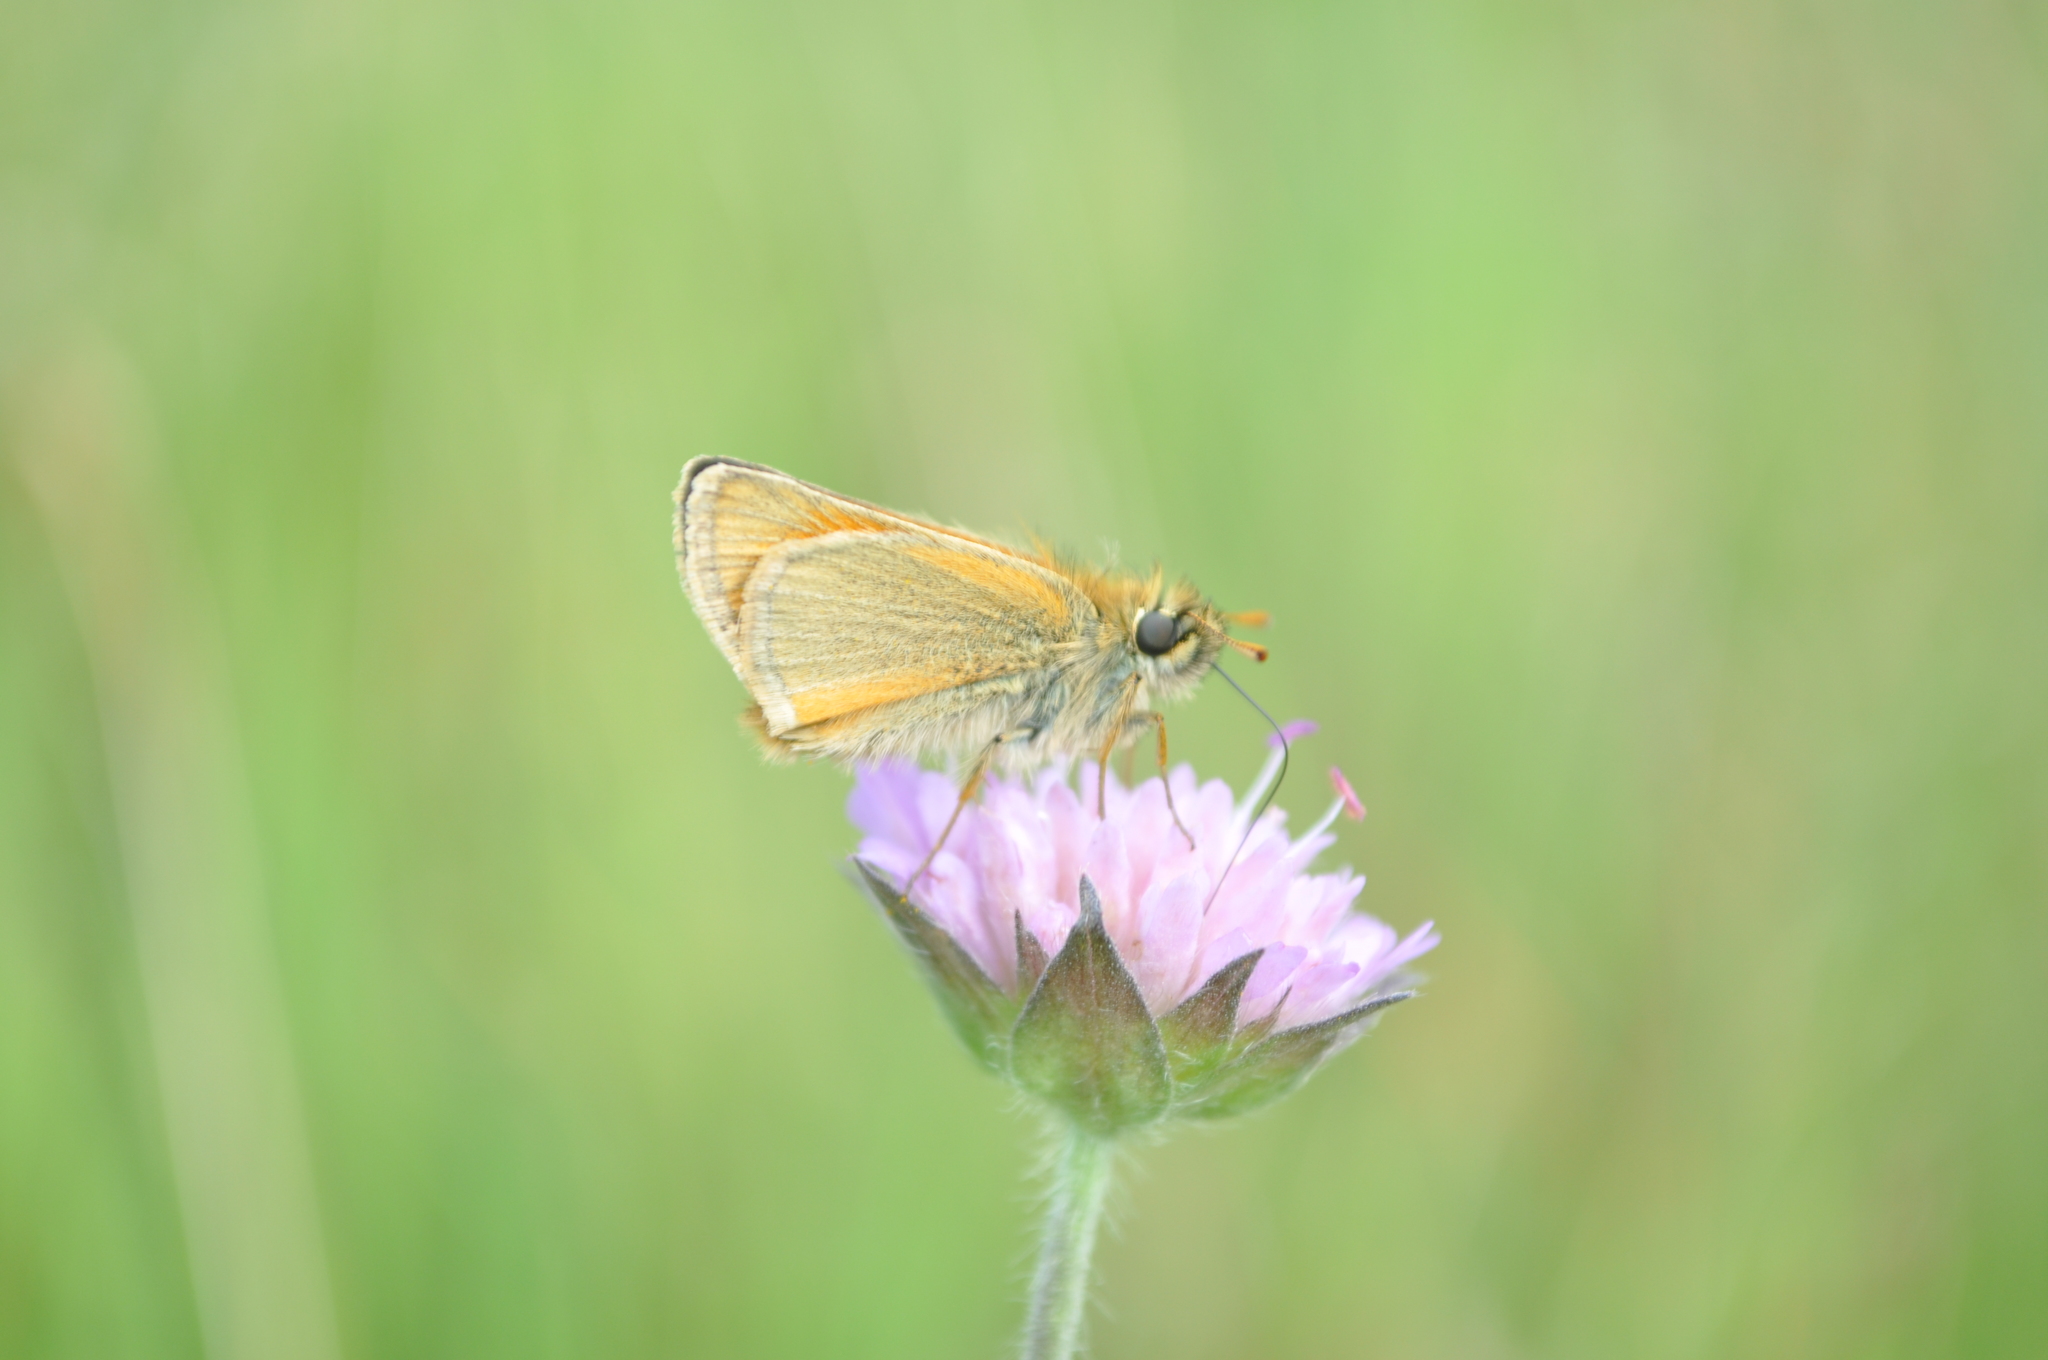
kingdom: Animalia
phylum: Arthropoda
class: Insecta
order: Lepidoptera
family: Hesperiidae
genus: Thymelicus
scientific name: Thymelicus sylvestris
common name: Small skipper
